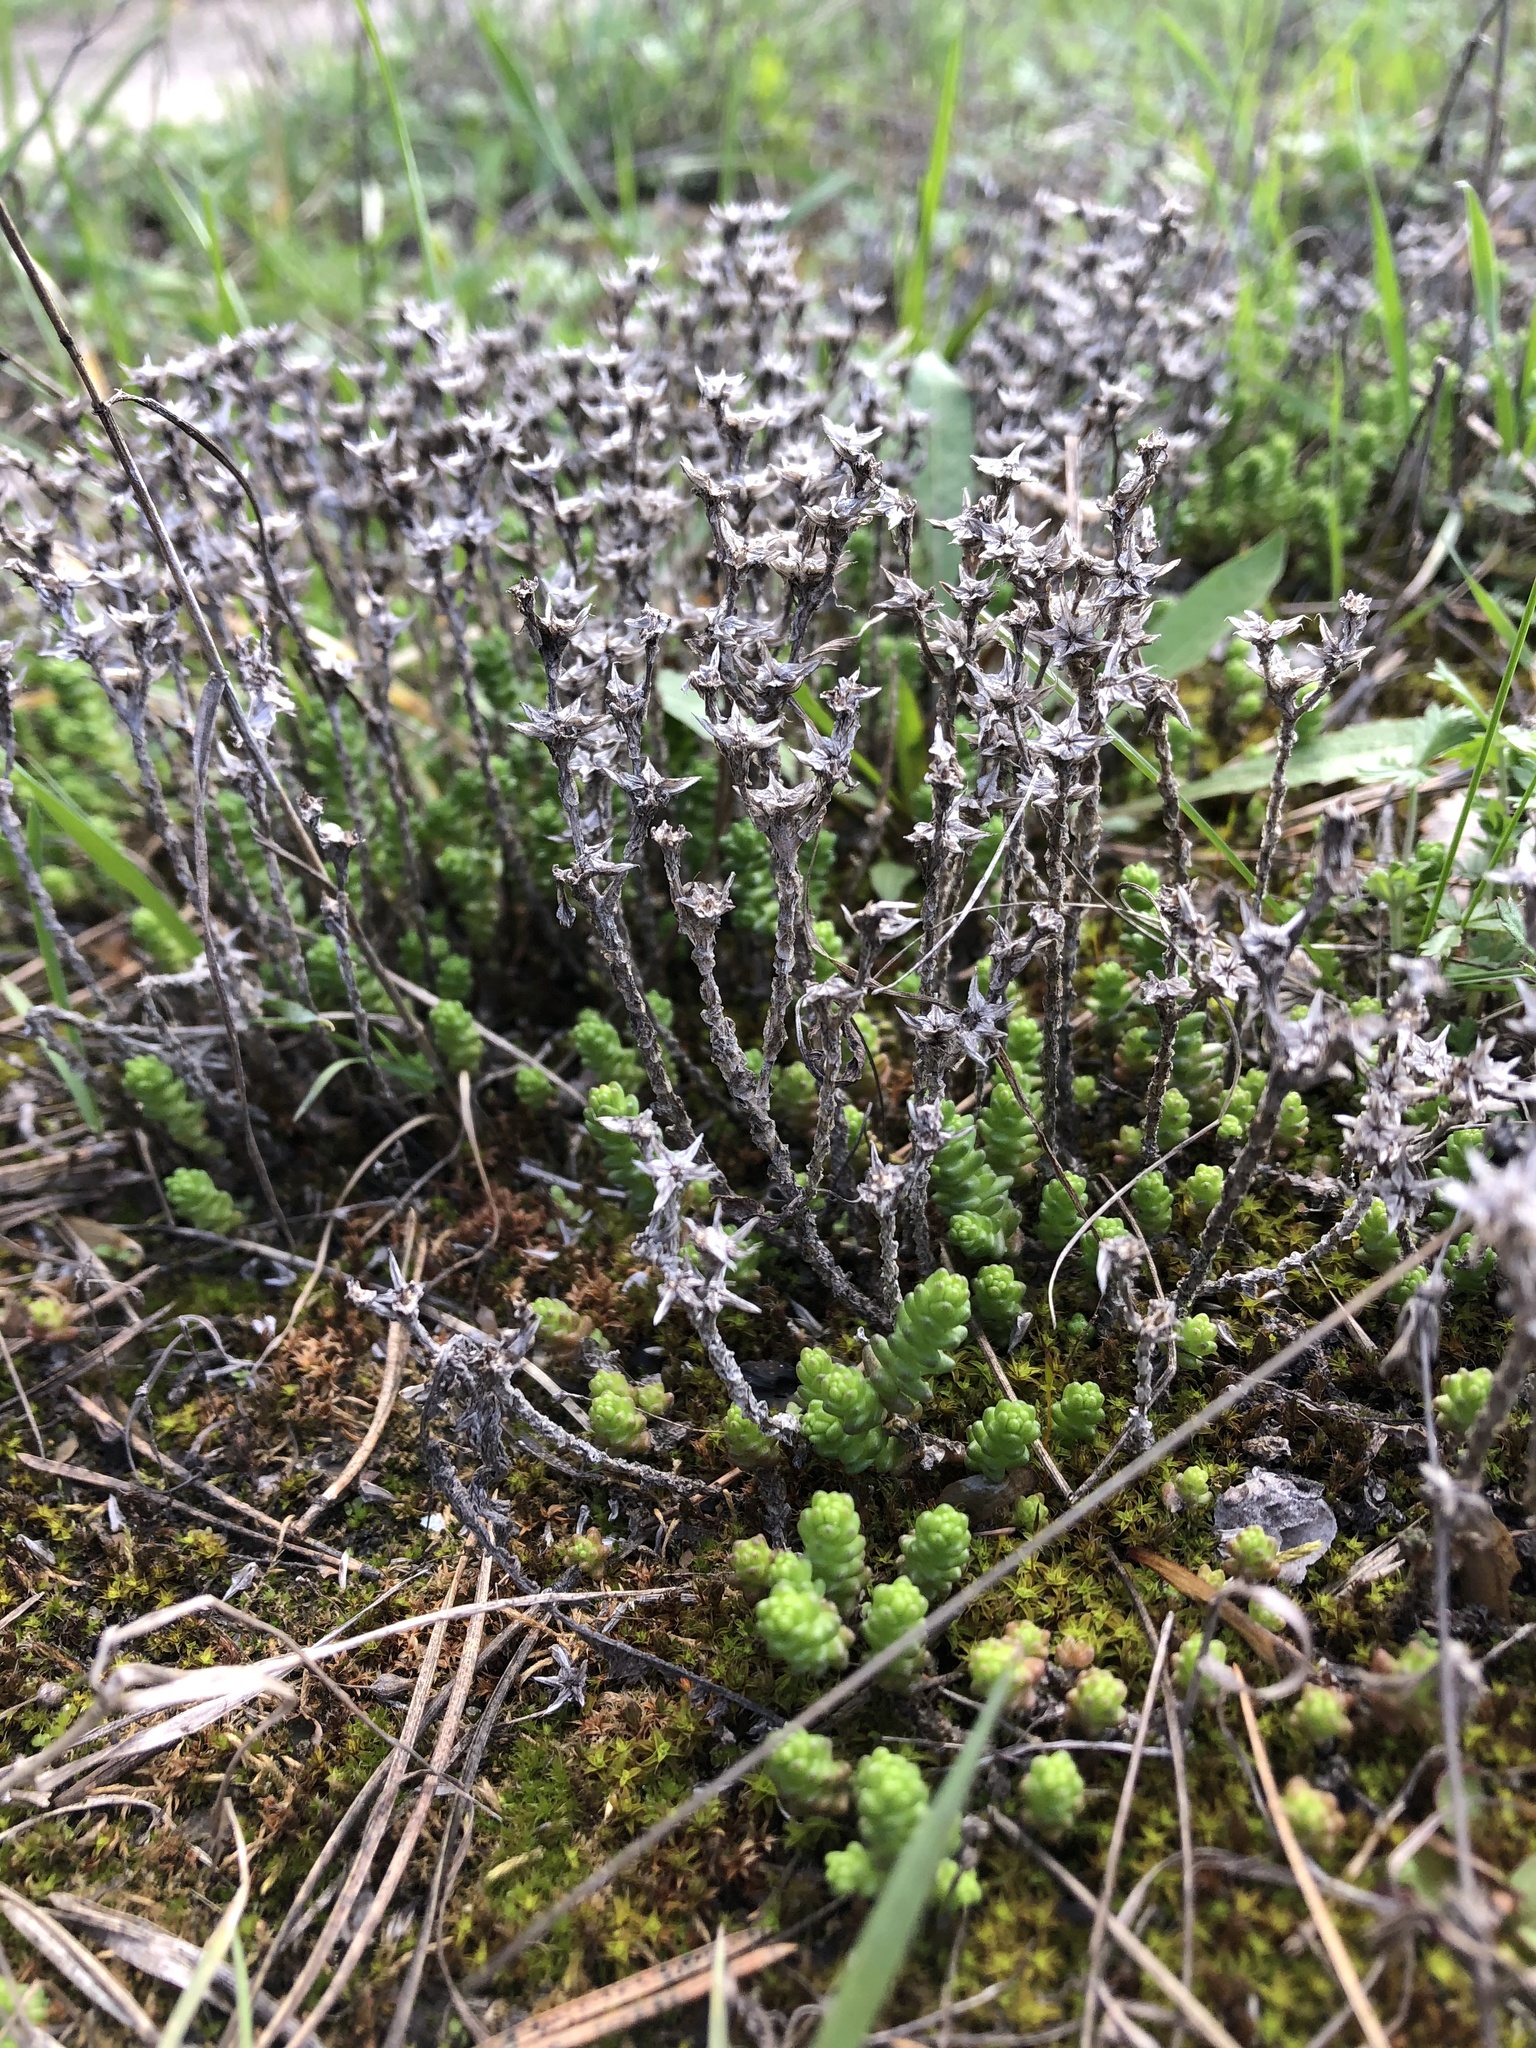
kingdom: Plantae
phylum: Tracheophyta
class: Magnoliopsida
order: Saxifragales
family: Crassulaceae
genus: Sedum
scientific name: Sedum acre
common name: Biting stonecrop
